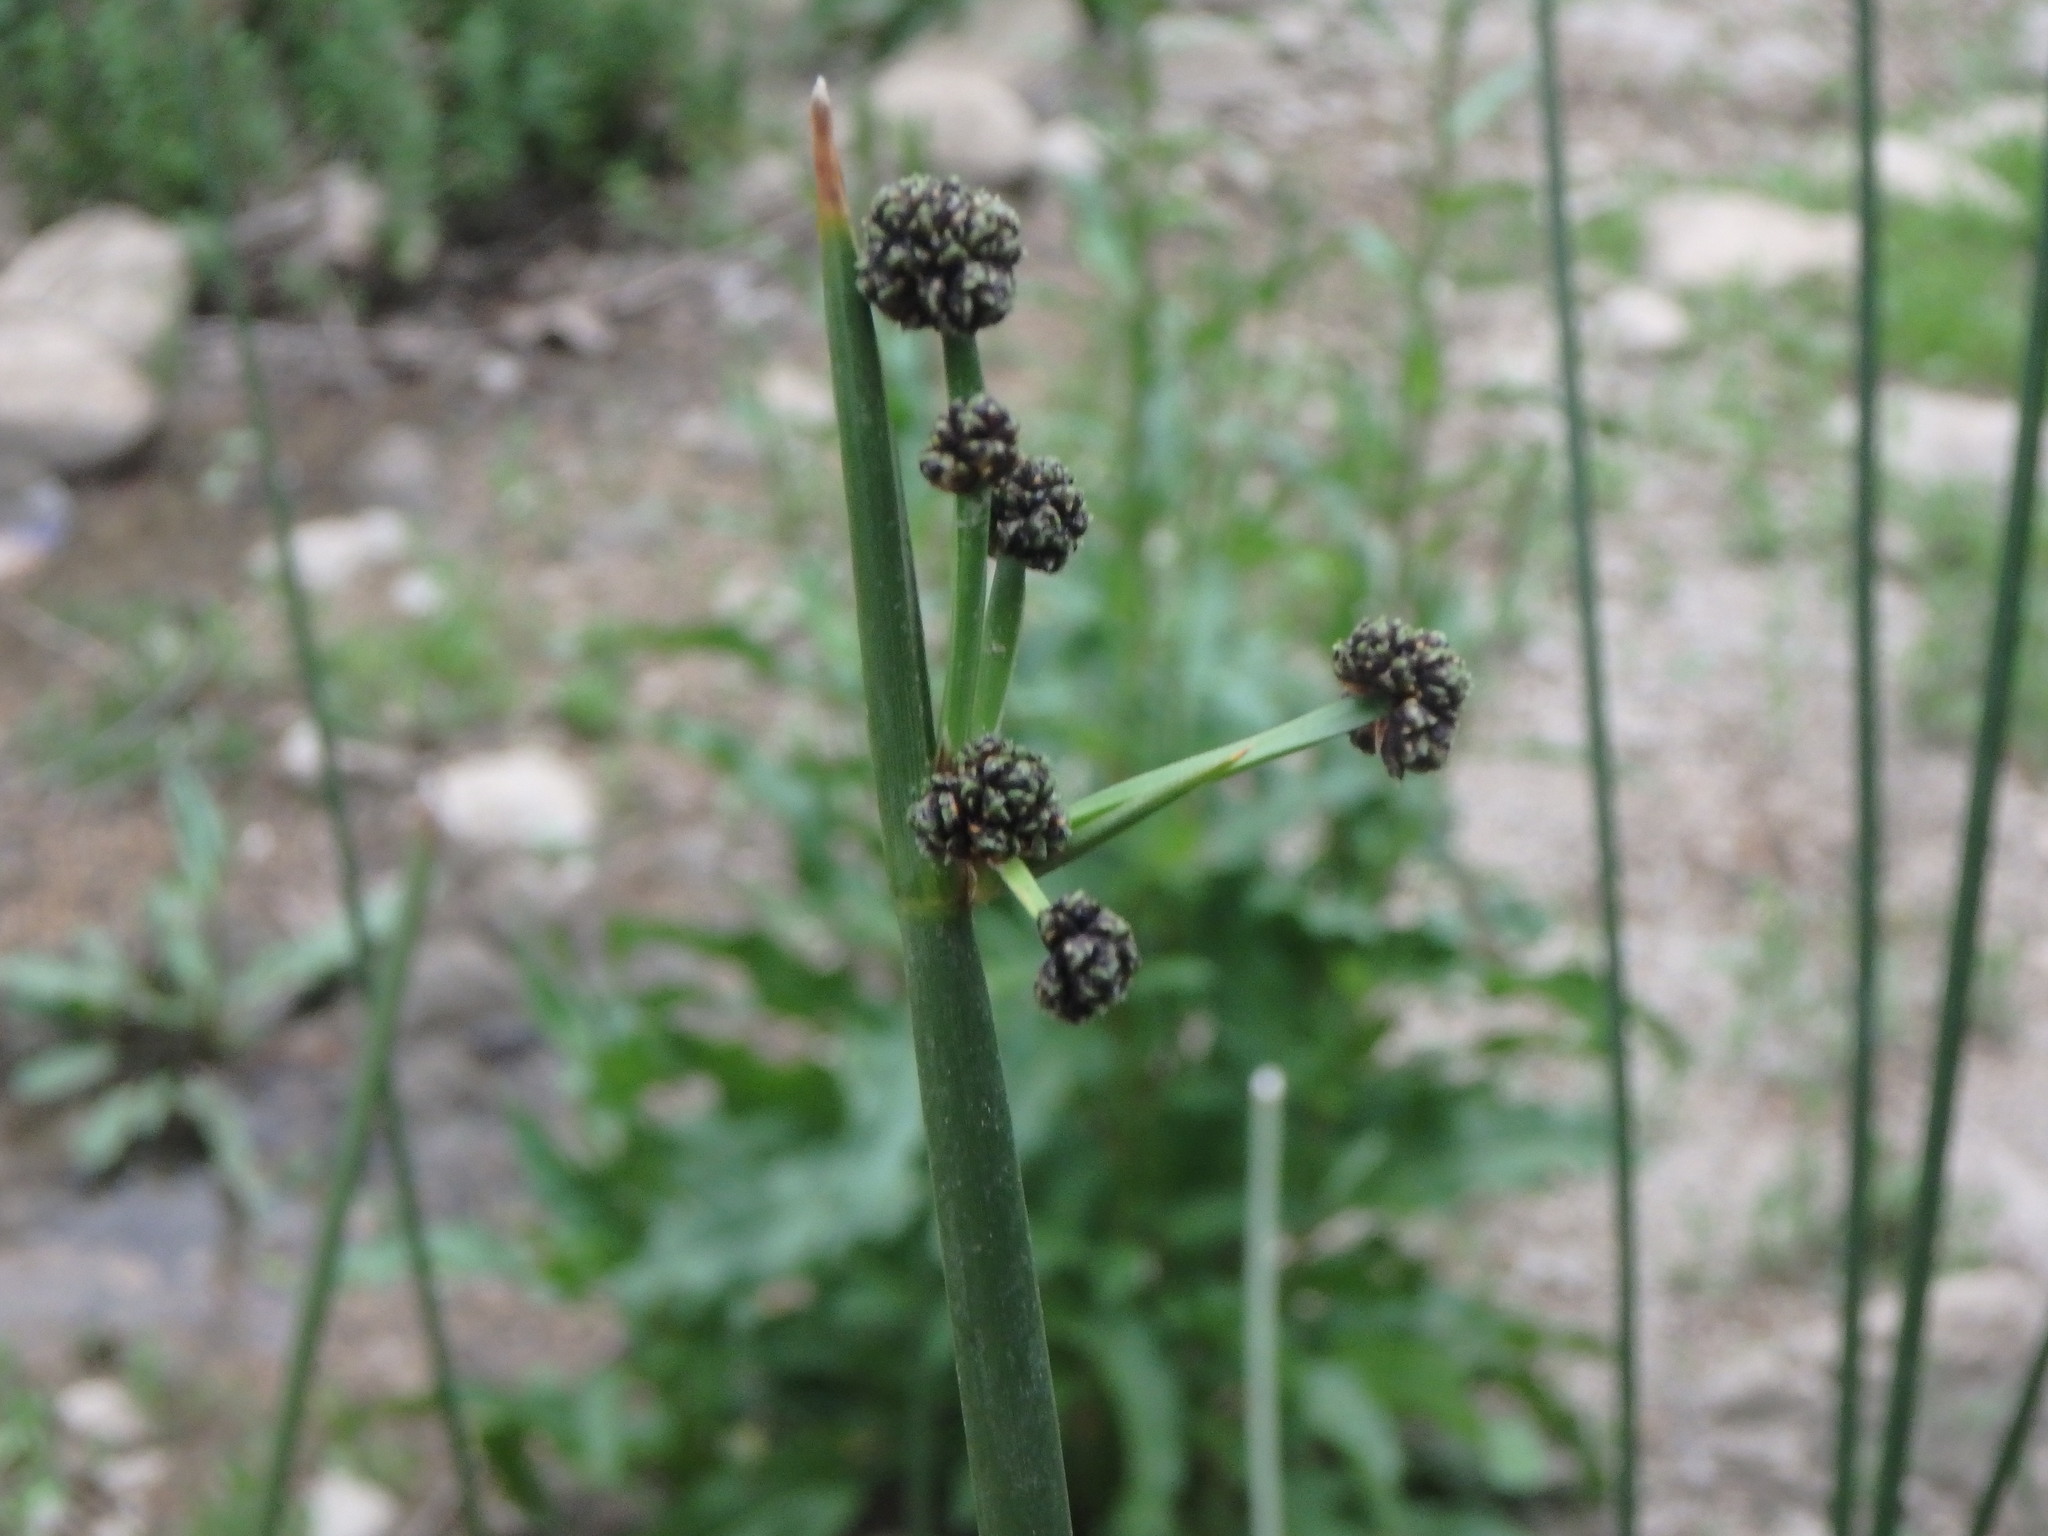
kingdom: Plantae
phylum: Tracheophyta
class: Liliopsida
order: Poales
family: Cyperaceae
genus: Scirpoides
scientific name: Scirpoides holoschoenus
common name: Round-headed club-rush
